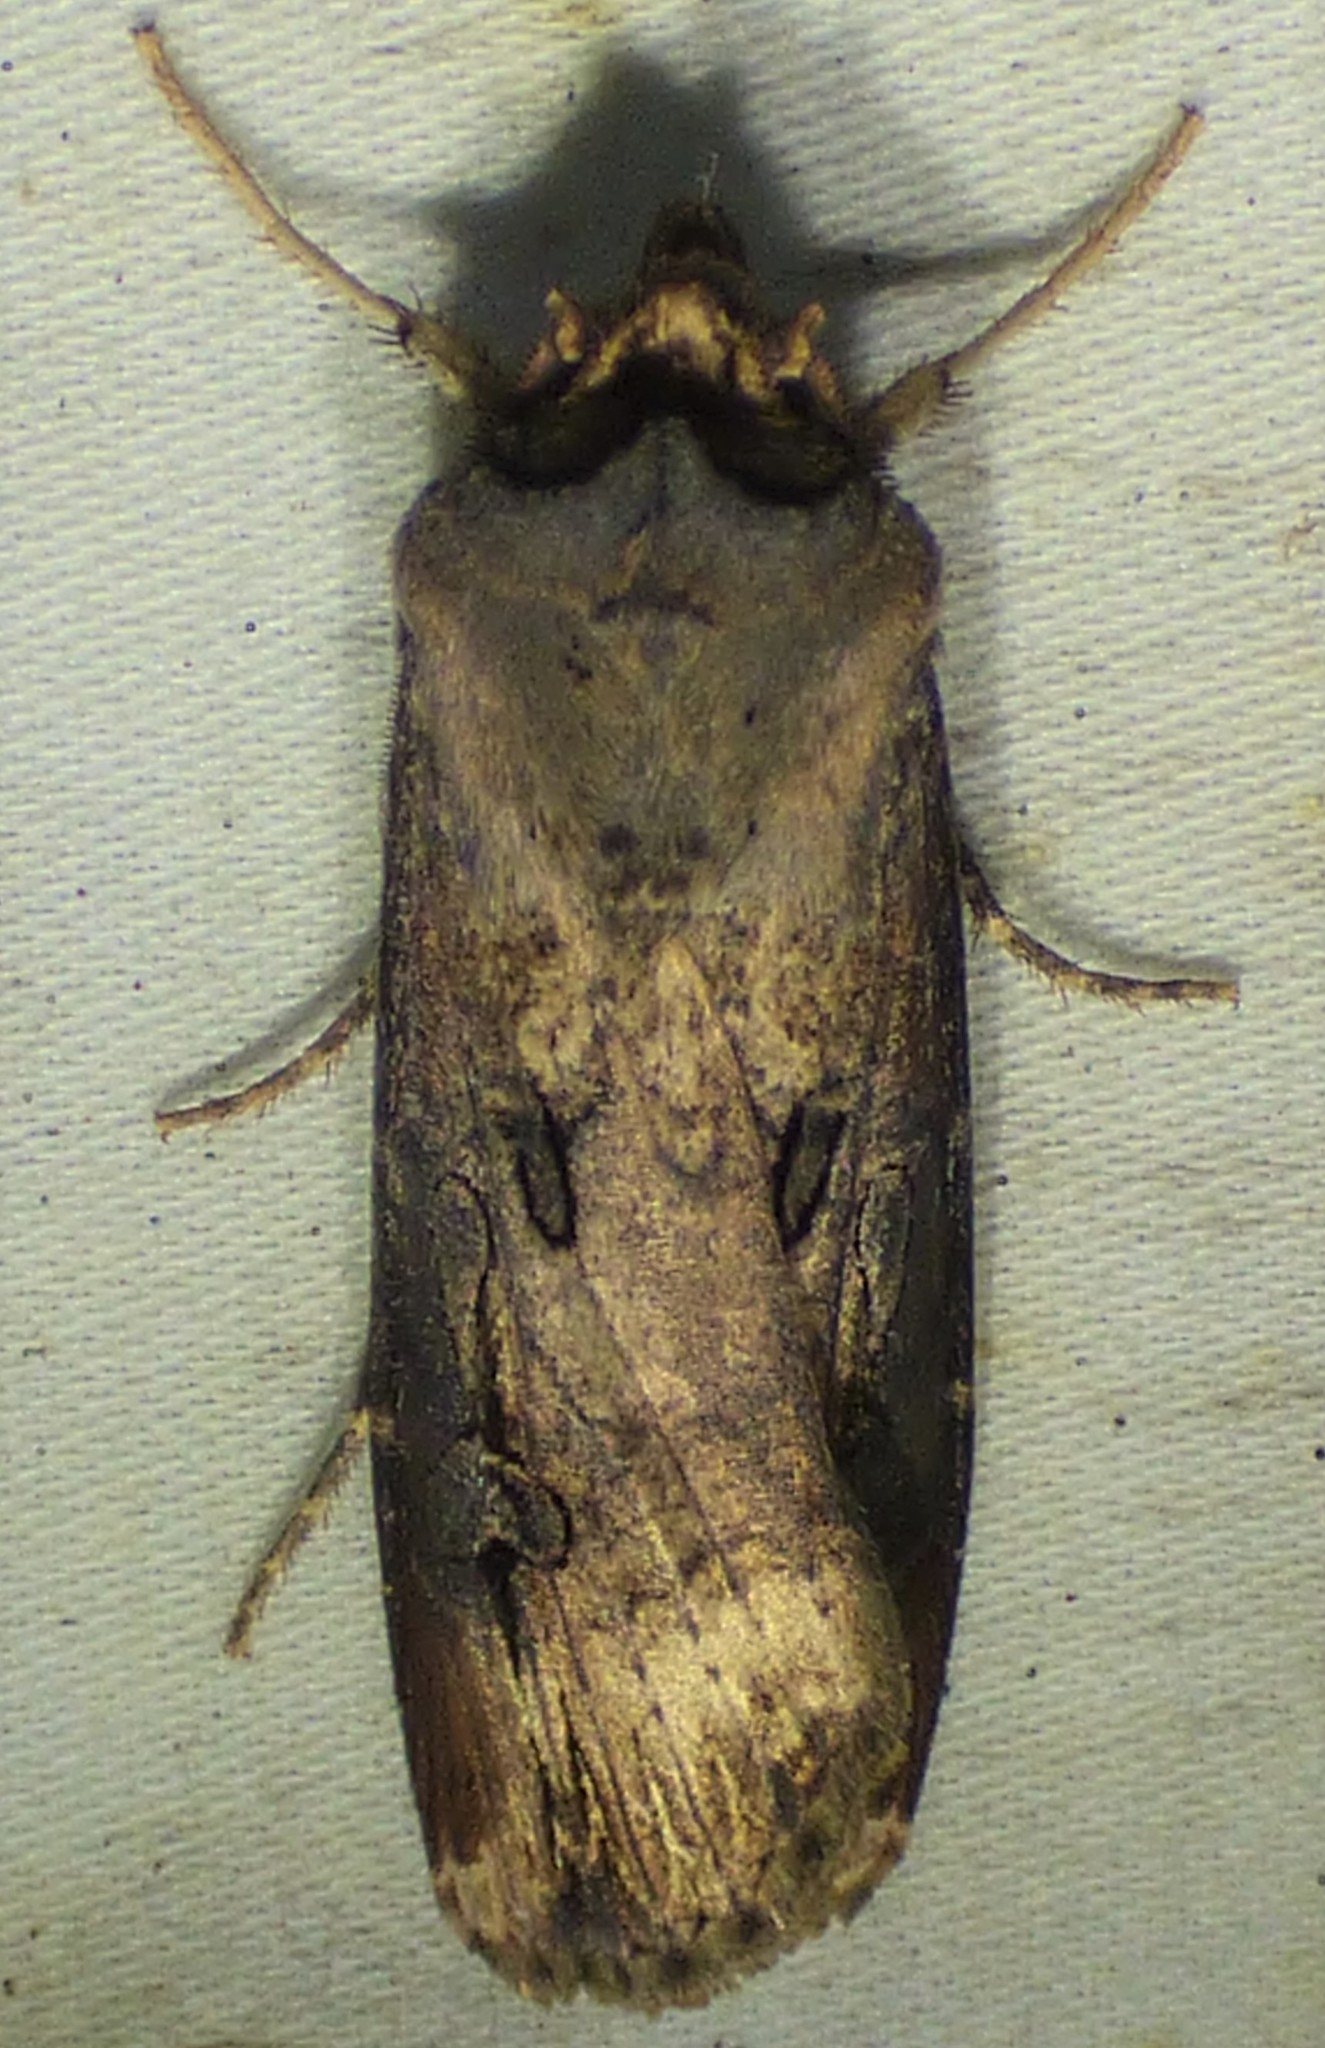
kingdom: Animalia
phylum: Arthropoda
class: Insecta
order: Lepidoptera
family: Noctuidae
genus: Agrotis
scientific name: Agrotis ipsilon
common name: Dark sword-grass
